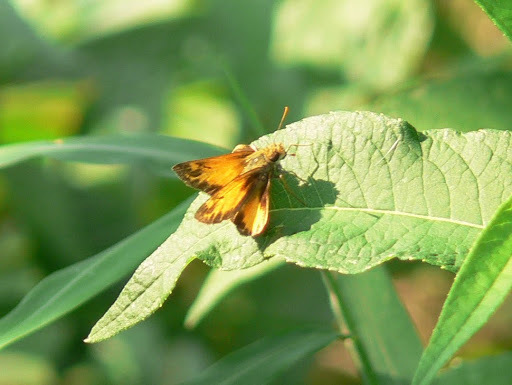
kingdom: Animalia
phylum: Arthropoda
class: Insecta
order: Lepidoptera
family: Hesperiidae
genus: Lon
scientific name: Lon zabulon
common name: Zabulon skipper
